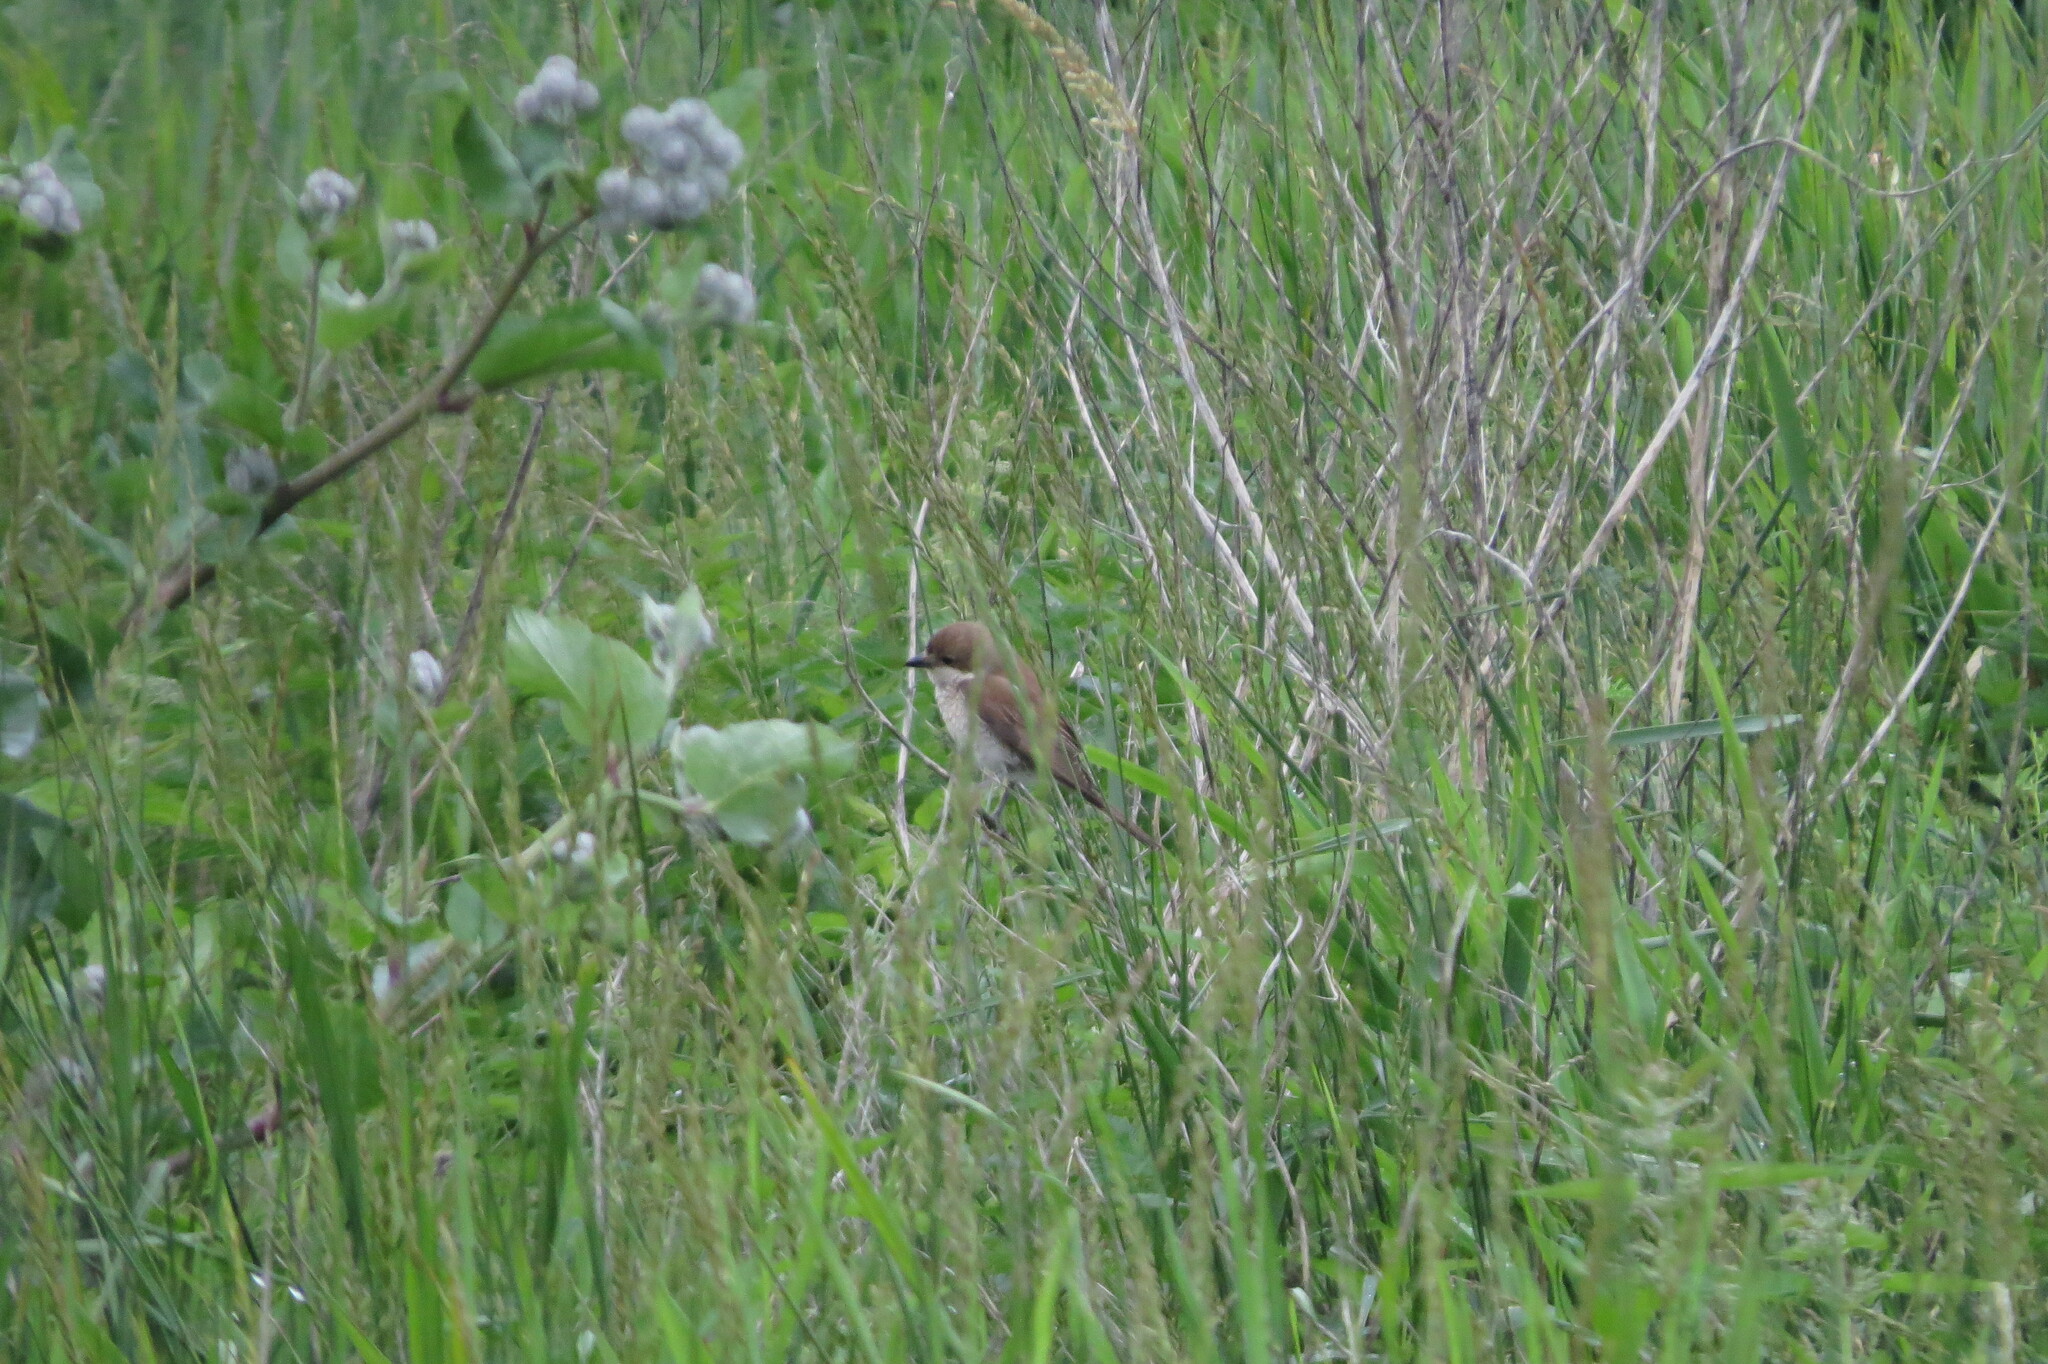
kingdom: Animalia
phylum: Chordata
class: Aves
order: Passeriformes
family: Laniidae
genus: Lanius
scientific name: Lanius collurio
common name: Red-backed shrike
